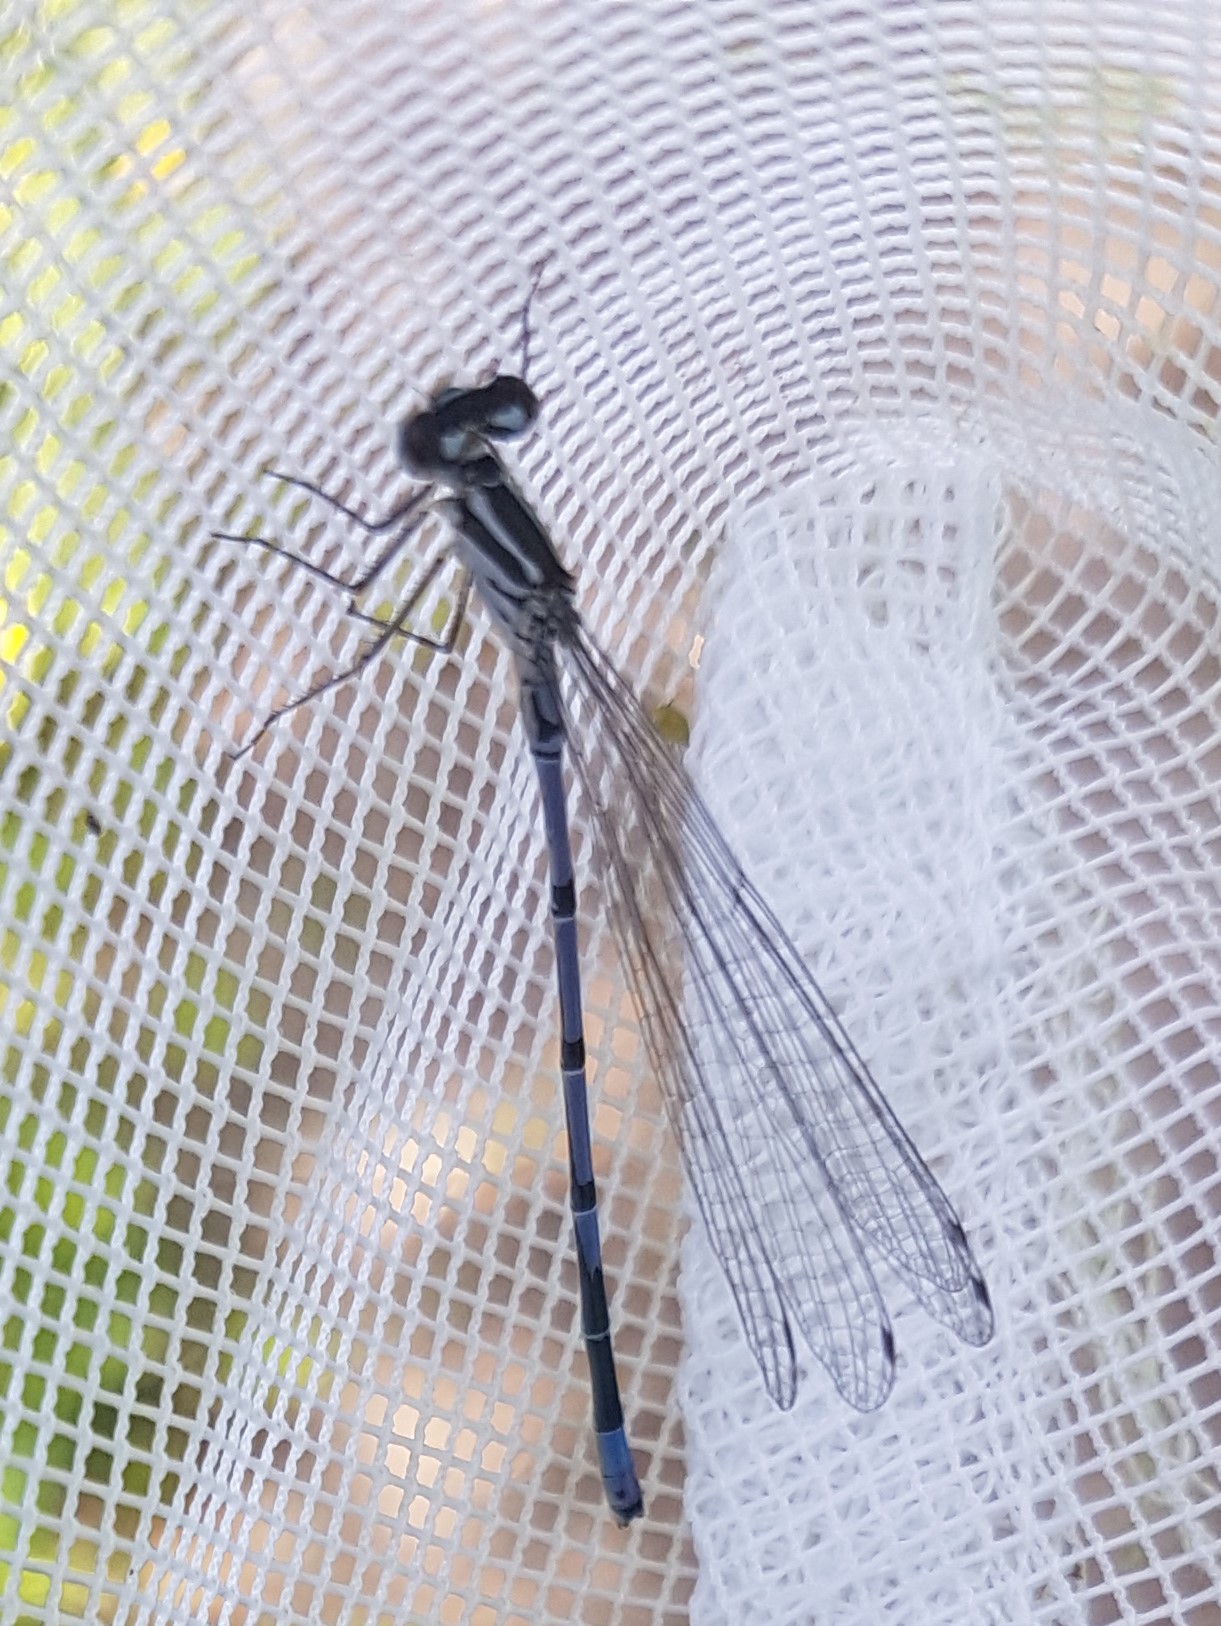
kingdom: Animalia
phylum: Arthropoda
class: Insecta
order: Odonata
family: Coenagrionidae
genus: Coenagrion
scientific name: Coenagrion puella
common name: Azure damselfly
